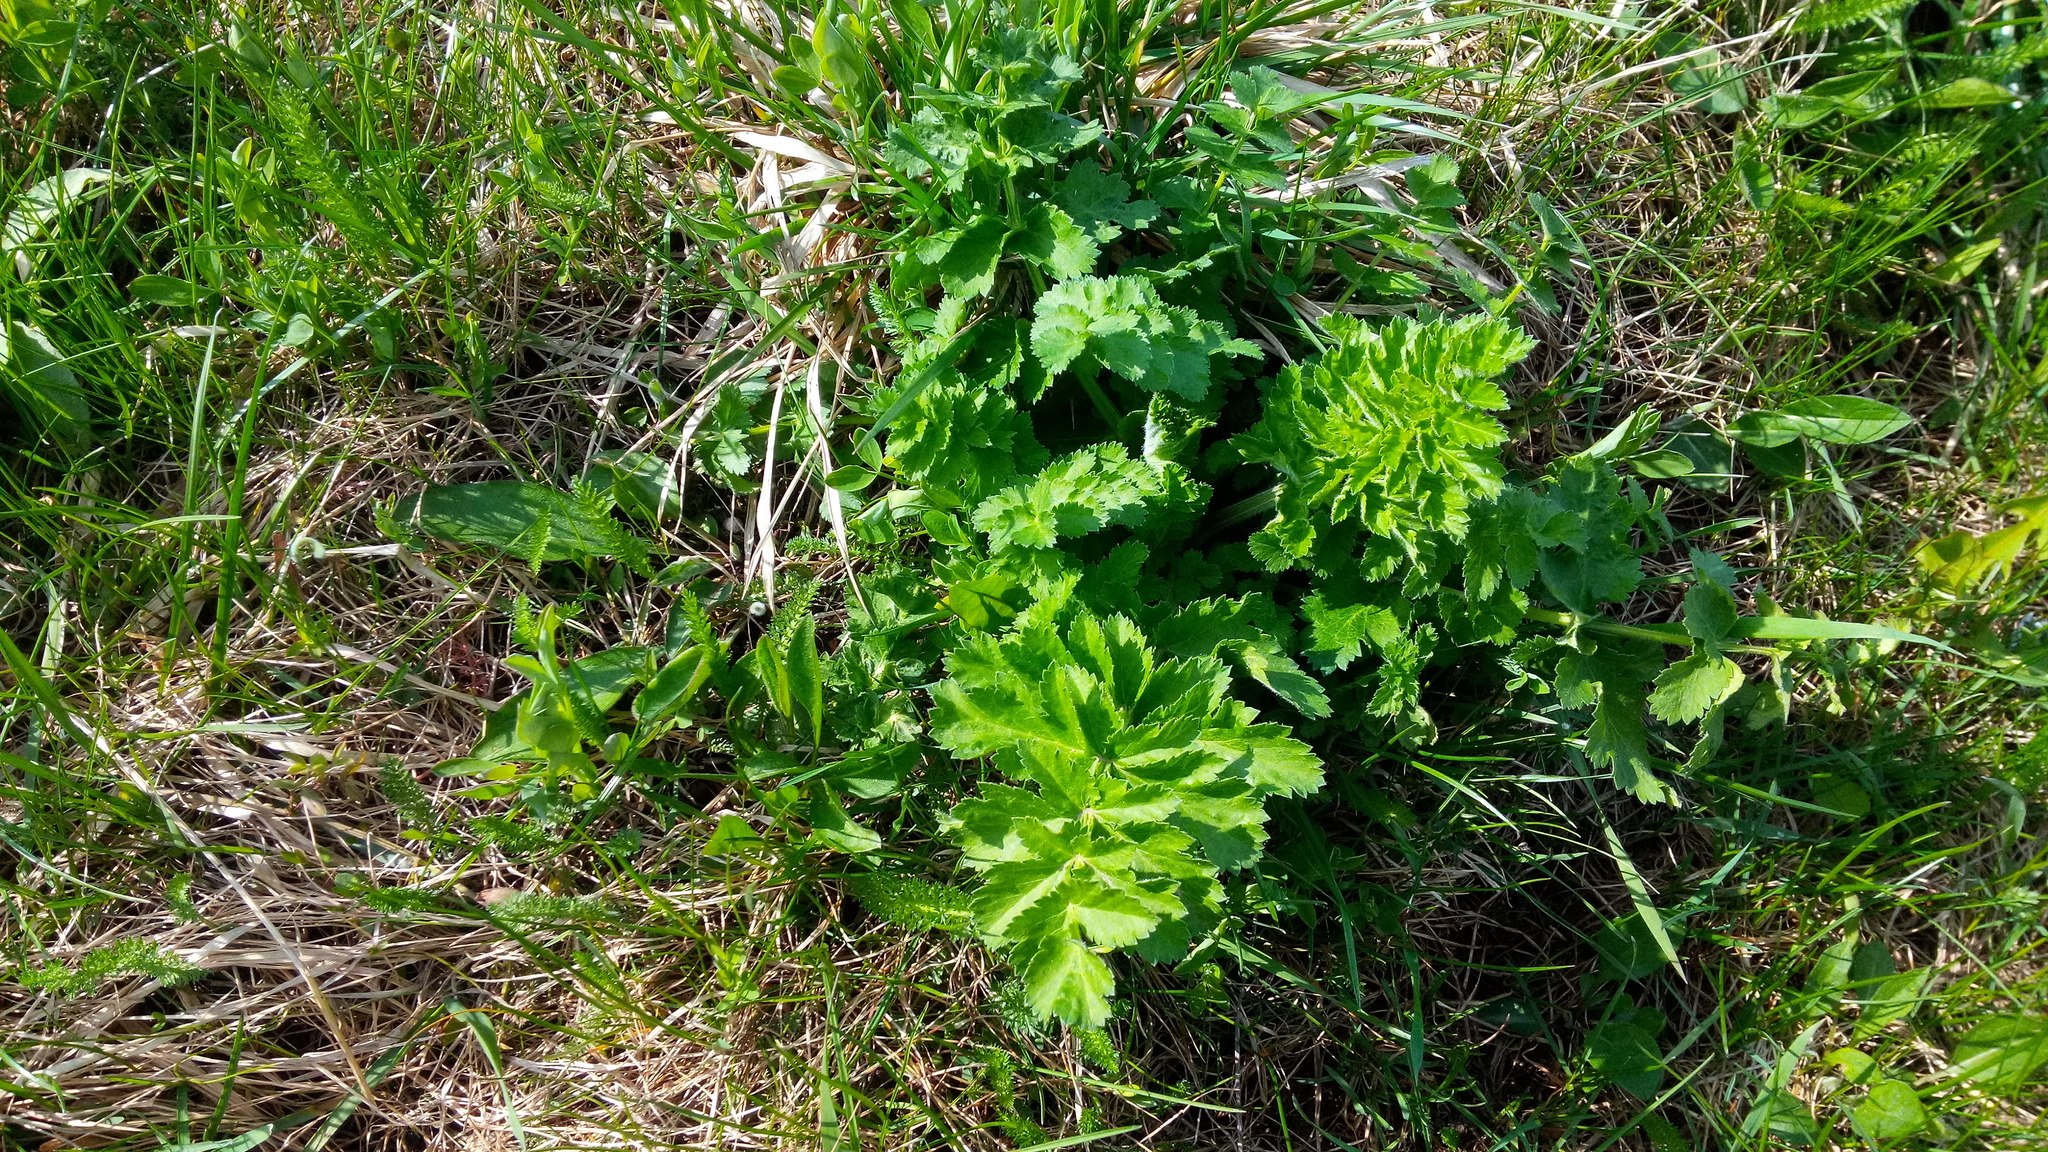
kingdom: Plantae
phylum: Tracheophyta
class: Magnoliopsida
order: Apiales
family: Apiaceae
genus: Pastinaca
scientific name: Pastinaca sativa
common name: Wild parsnip
